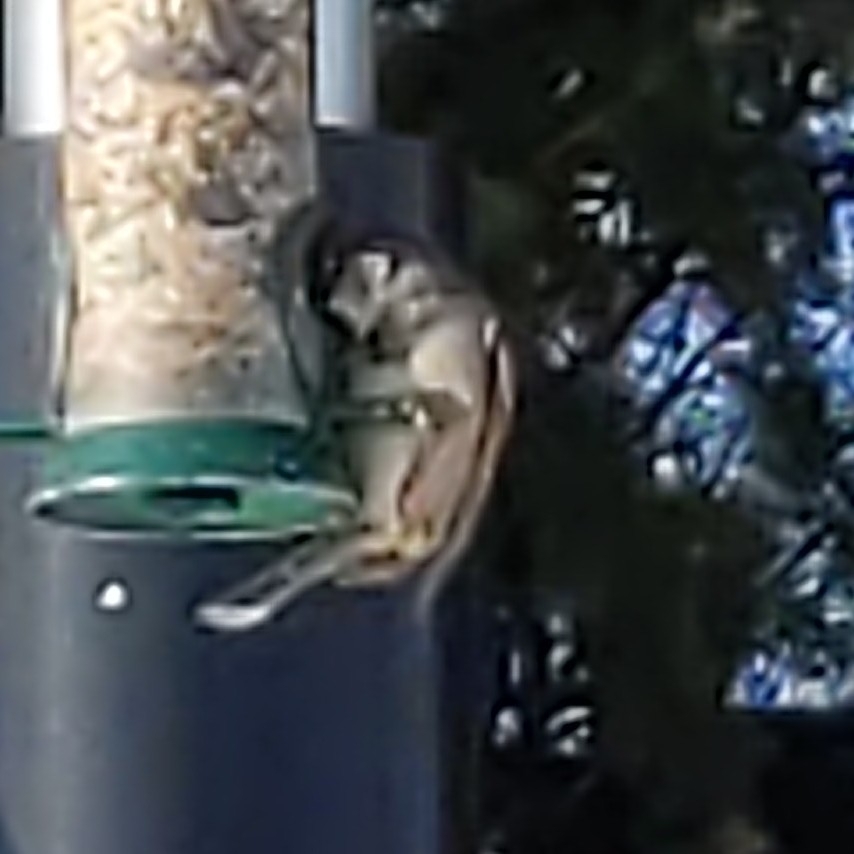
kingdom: Animalia
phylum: Chordata
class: Aves
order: Passeriformes
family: Passeridae
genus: Passer
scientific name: Passer domesticus
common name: House sparrow
